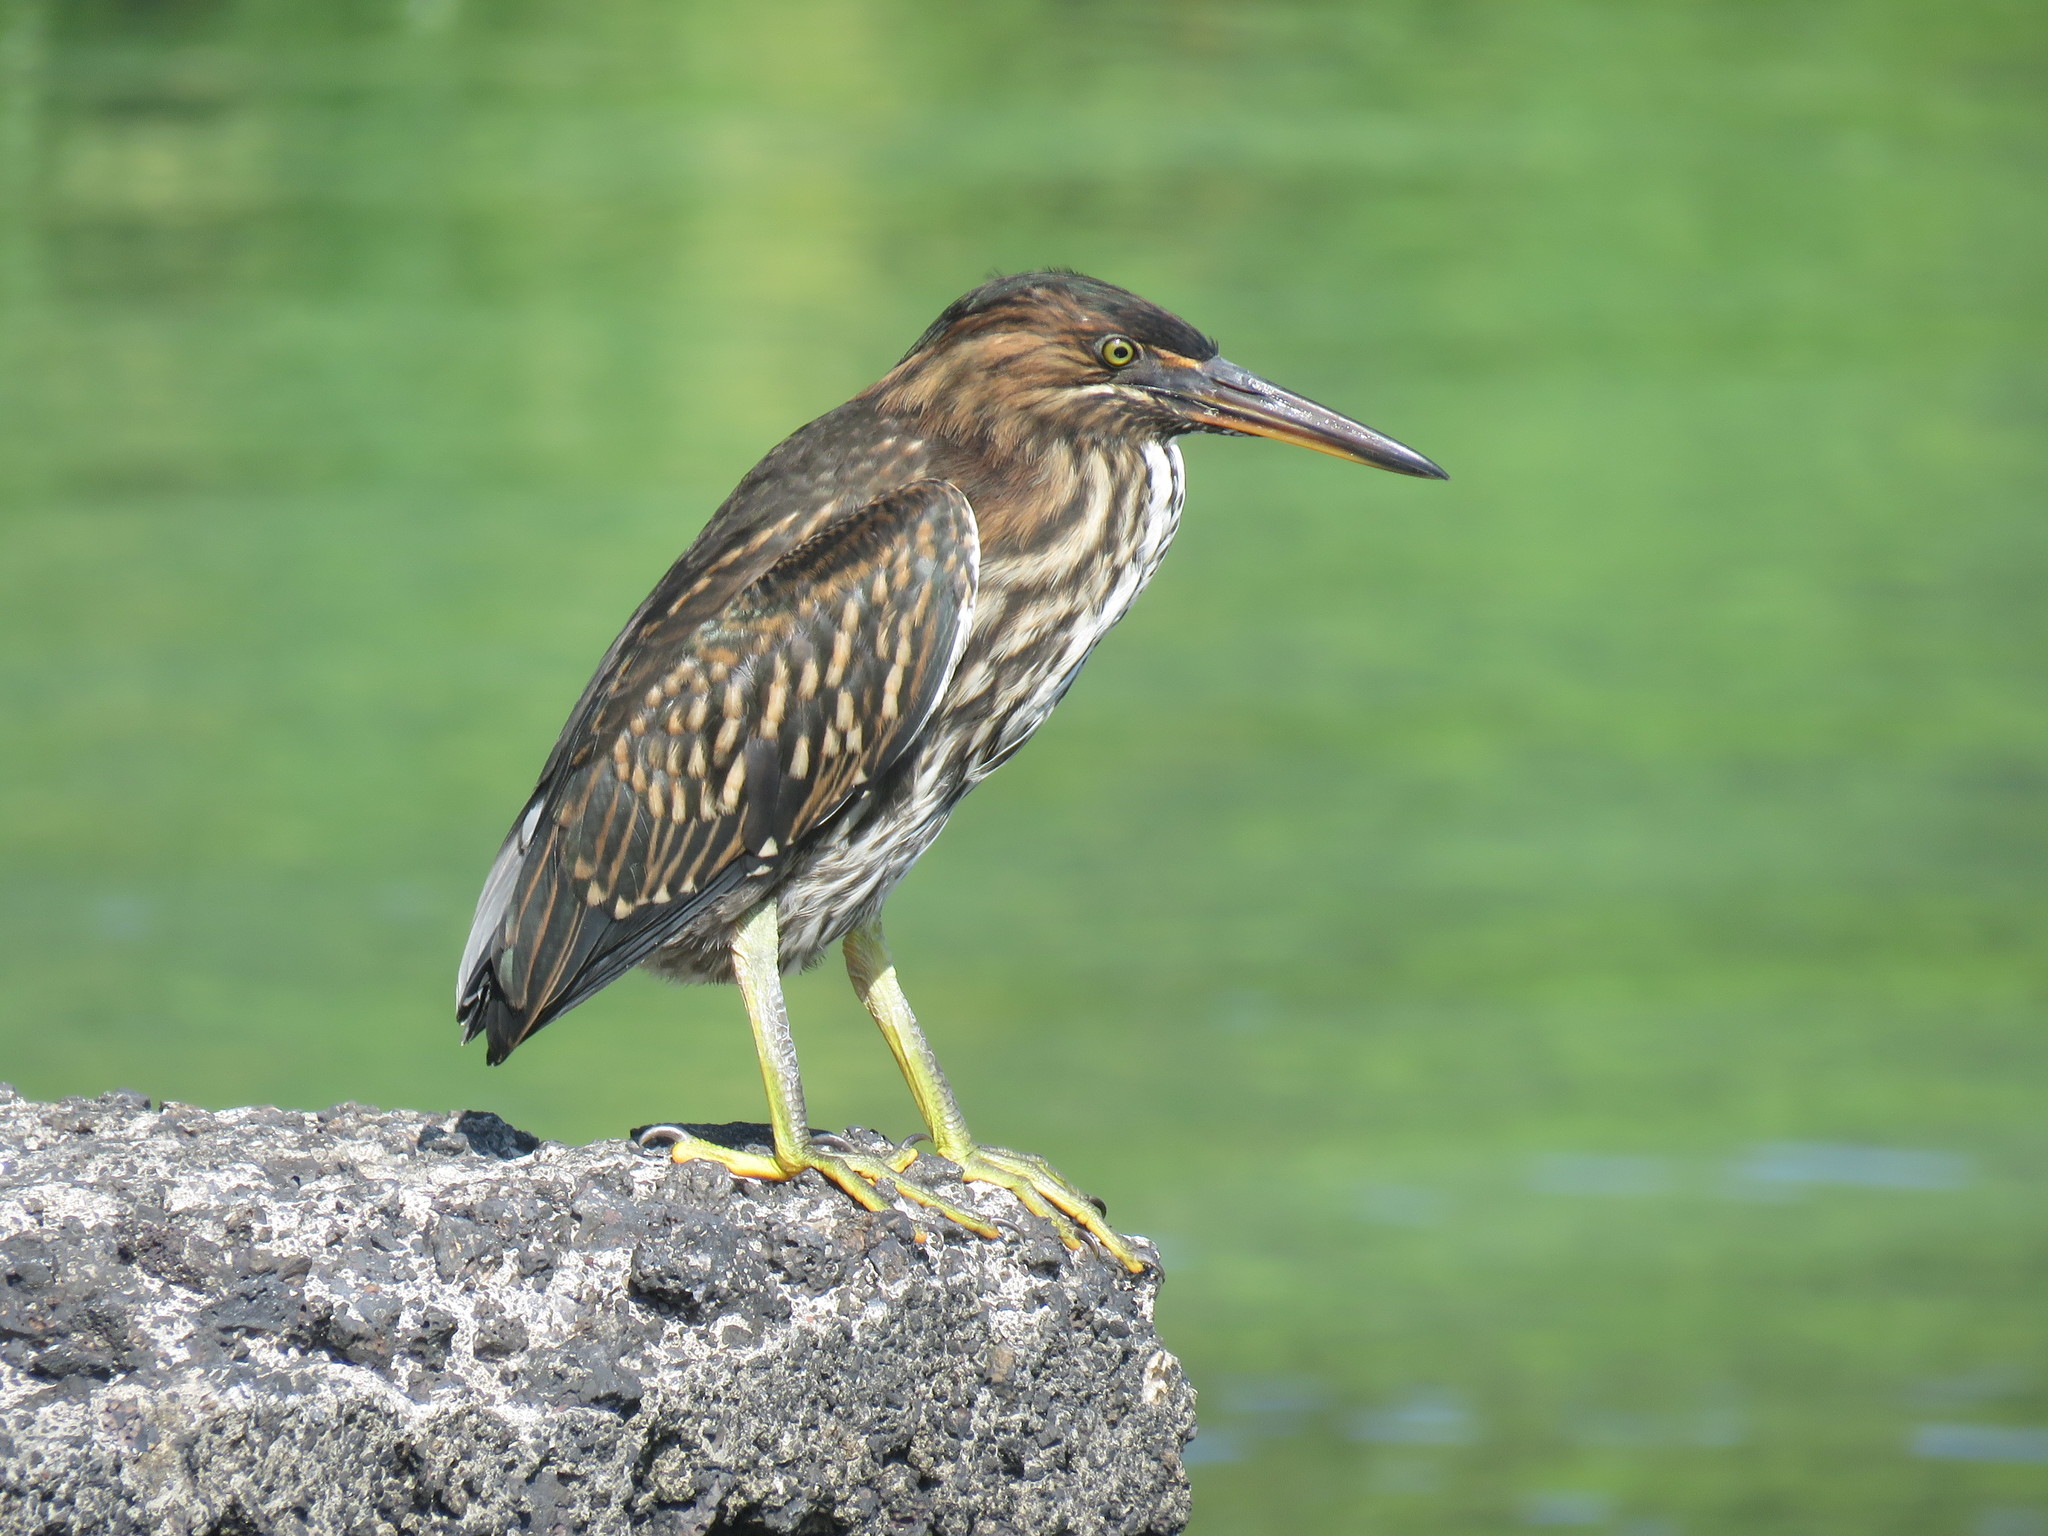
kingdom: Animalia
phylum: Chordata
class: Aves
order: Pelecaniformes
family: Ardeidae
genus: Butorides
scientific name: Butorides striata
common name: Striated heron
